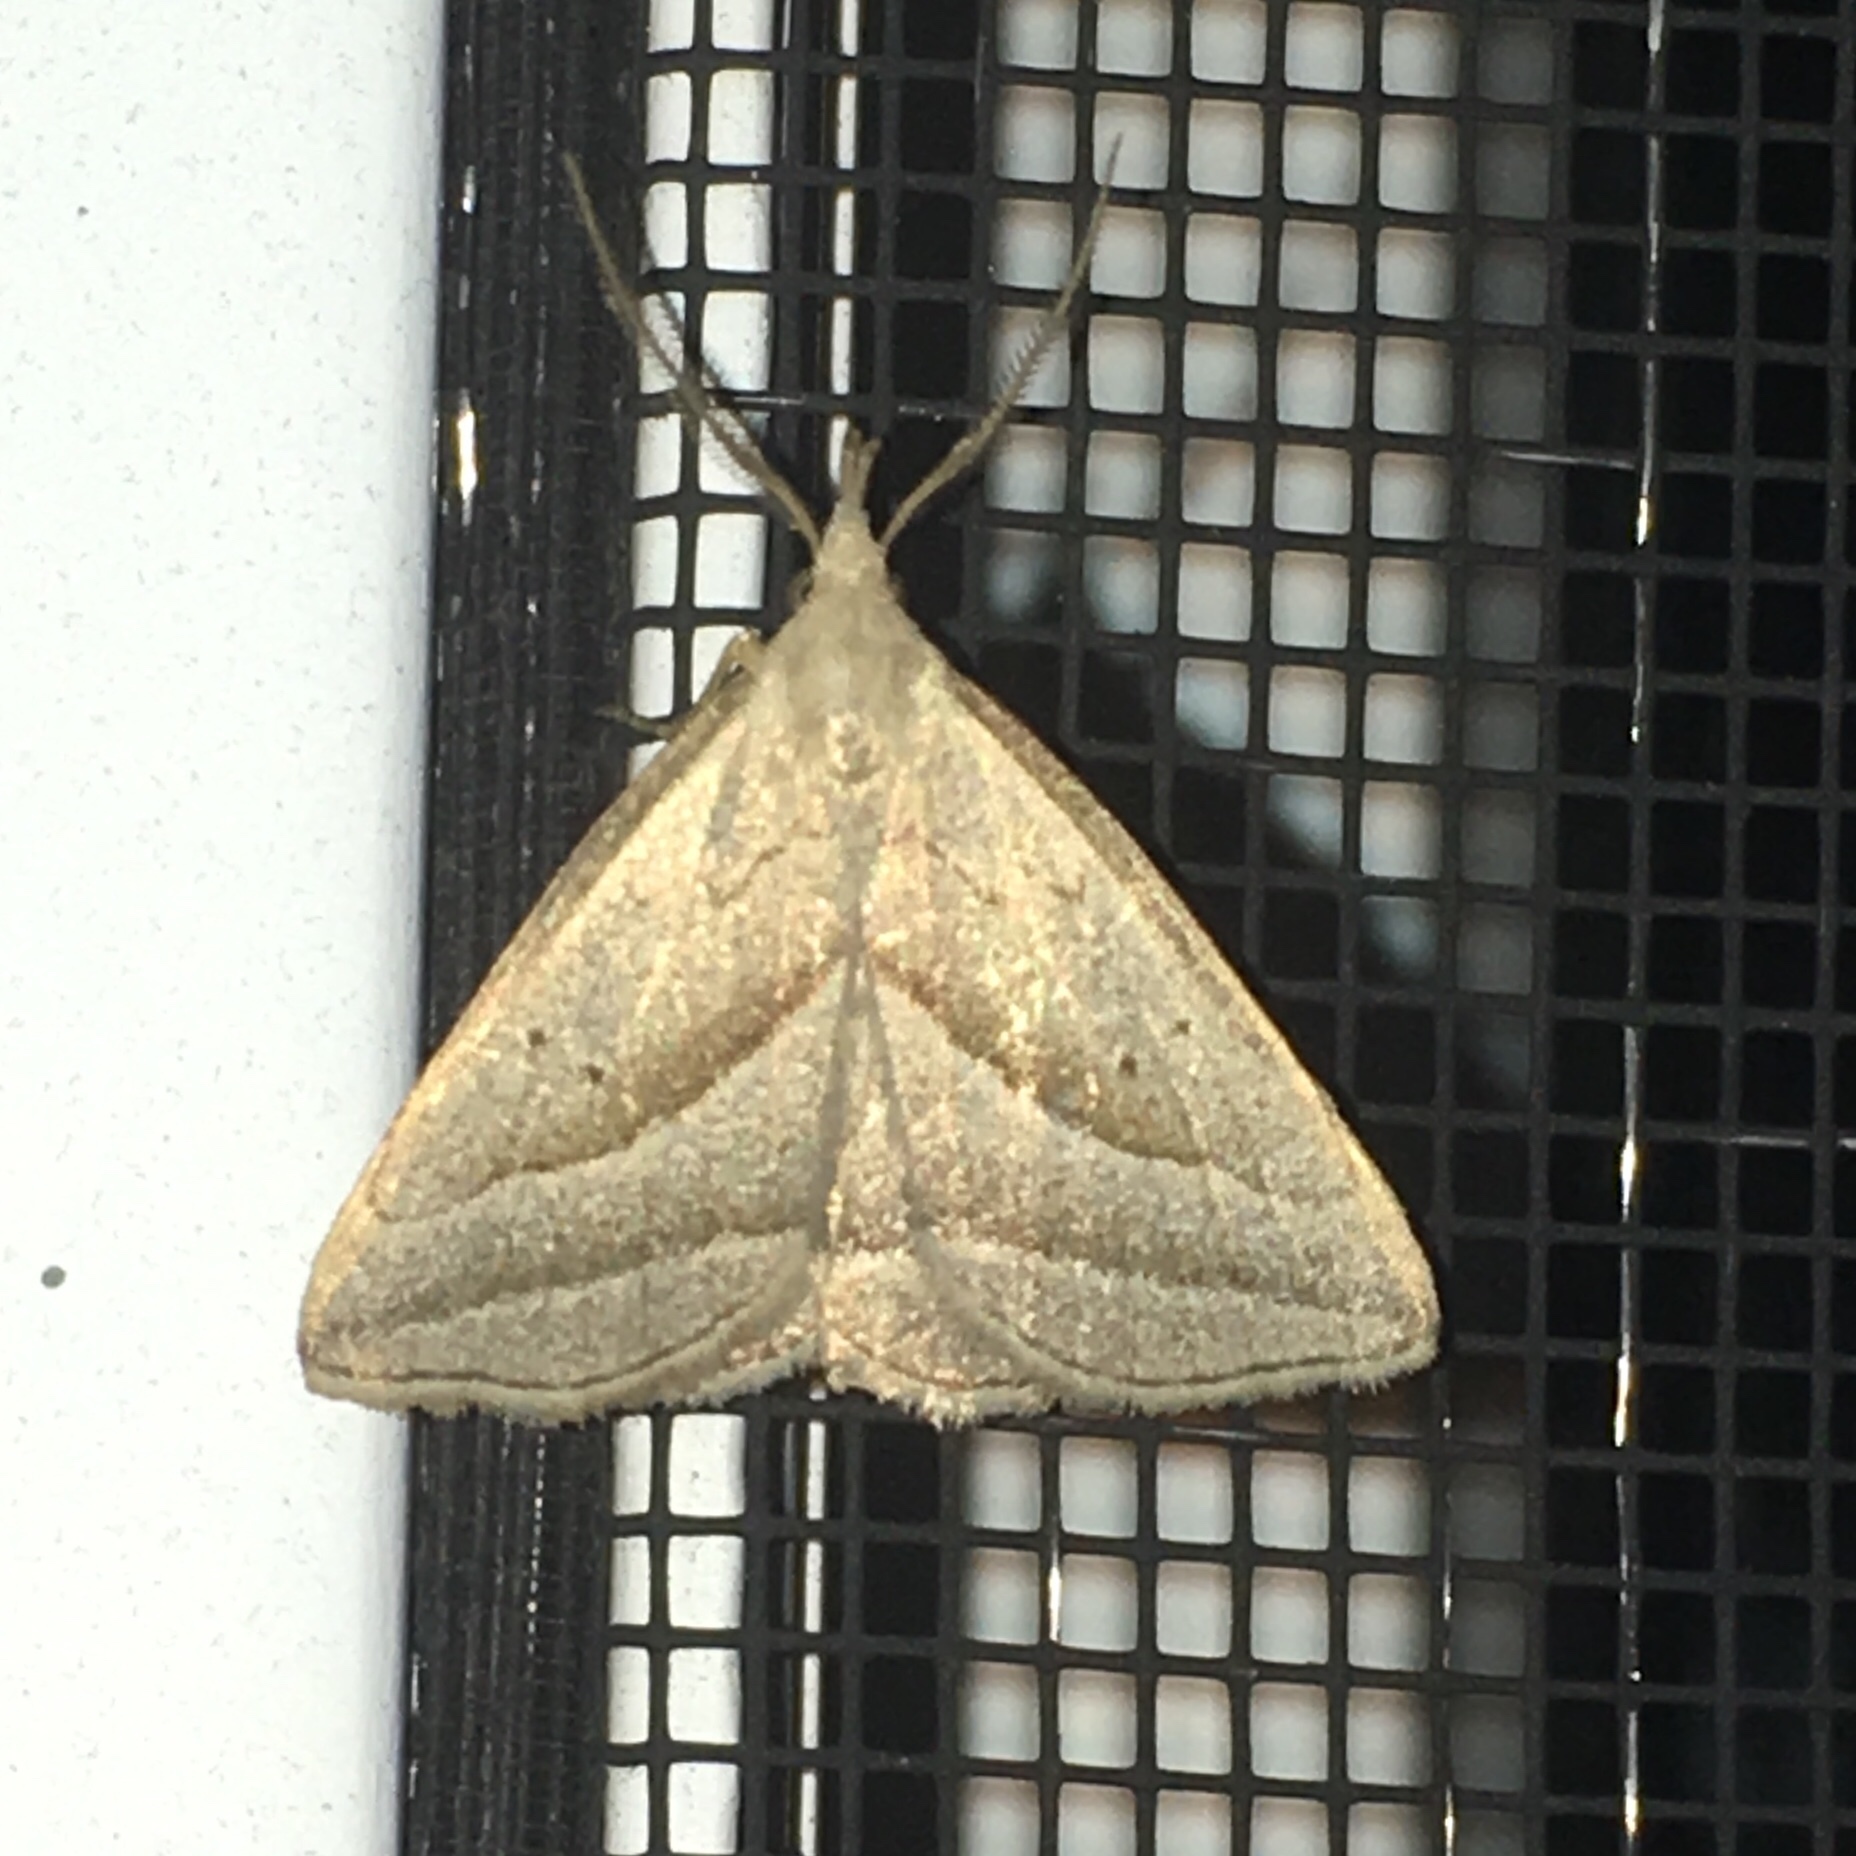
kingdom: Animalia
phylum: Arthropoda
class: Insecta
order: Lepidoptera
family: Erebidae
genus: Macrochilo
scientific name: Macrochilo absorptalis
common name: Slant-lined owlet
